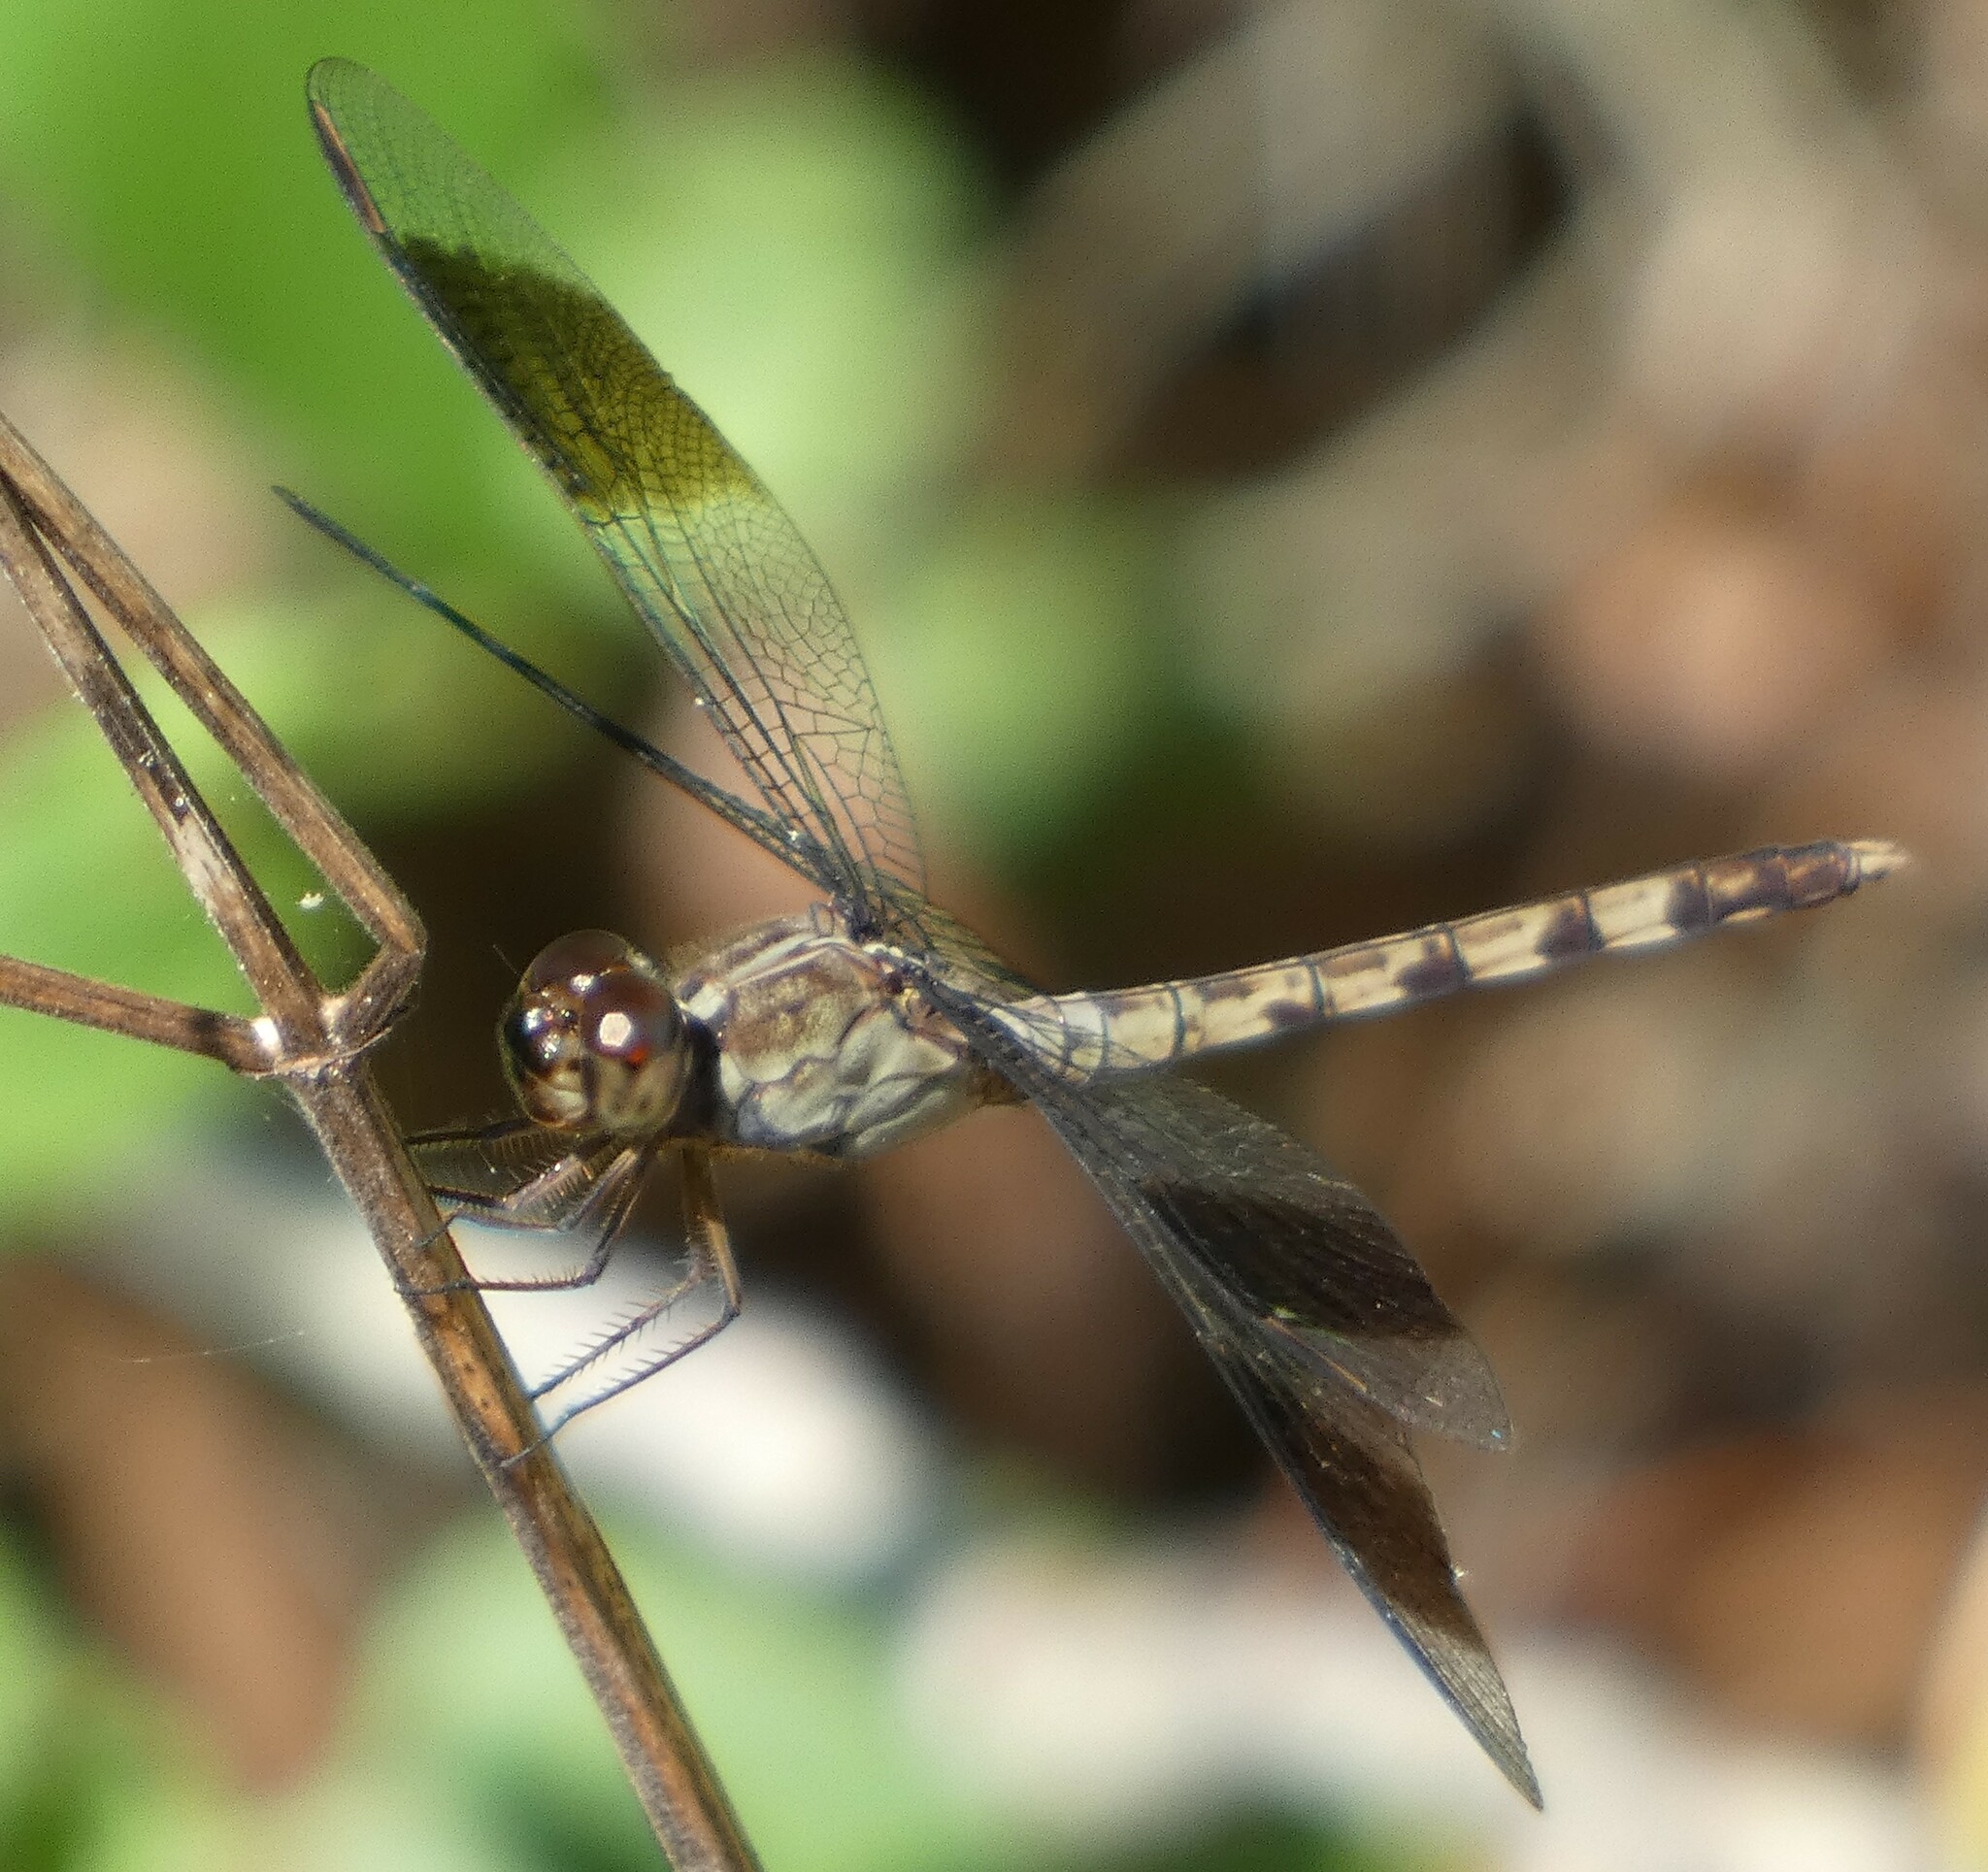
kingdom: Animalia
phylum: Arthropoda
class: Insecta
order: Odonata
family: Libellulidae
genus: Erythrodiplax
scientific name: Erythrodiplax umbrata
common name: Band-winged dragonlet
